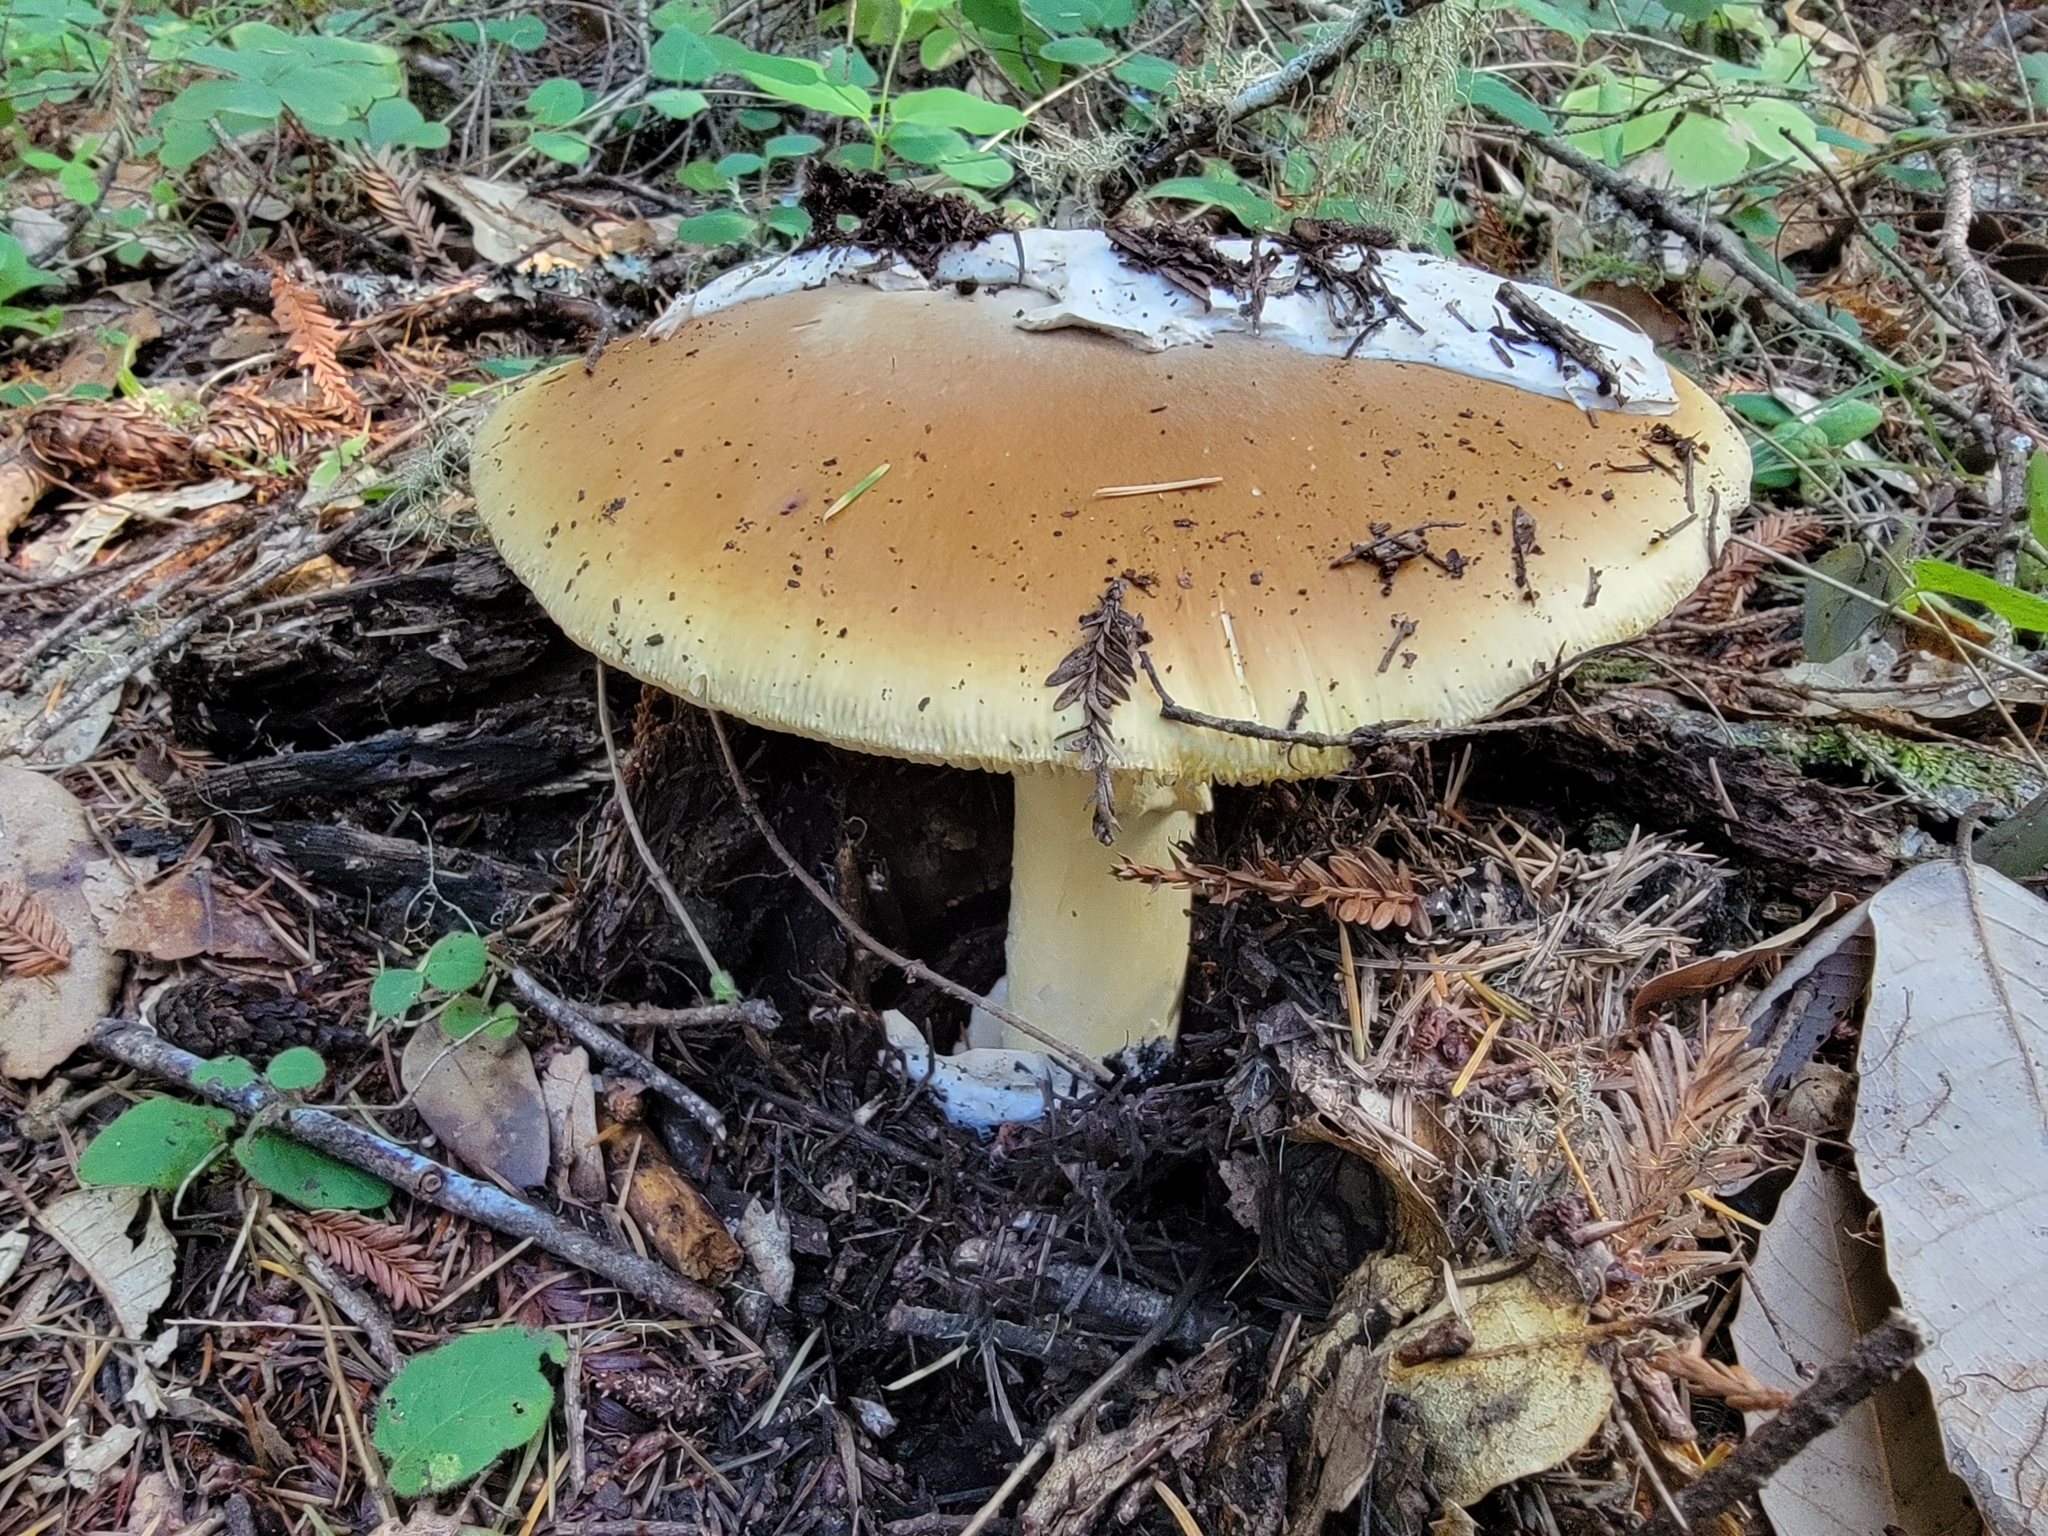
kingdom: Fungi
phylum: Basidiomycota
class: Agaricomycetes
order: Agaricales
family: Amanitaceae
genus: Amanita
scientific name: Amanita calyptroderma
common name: Coccora
